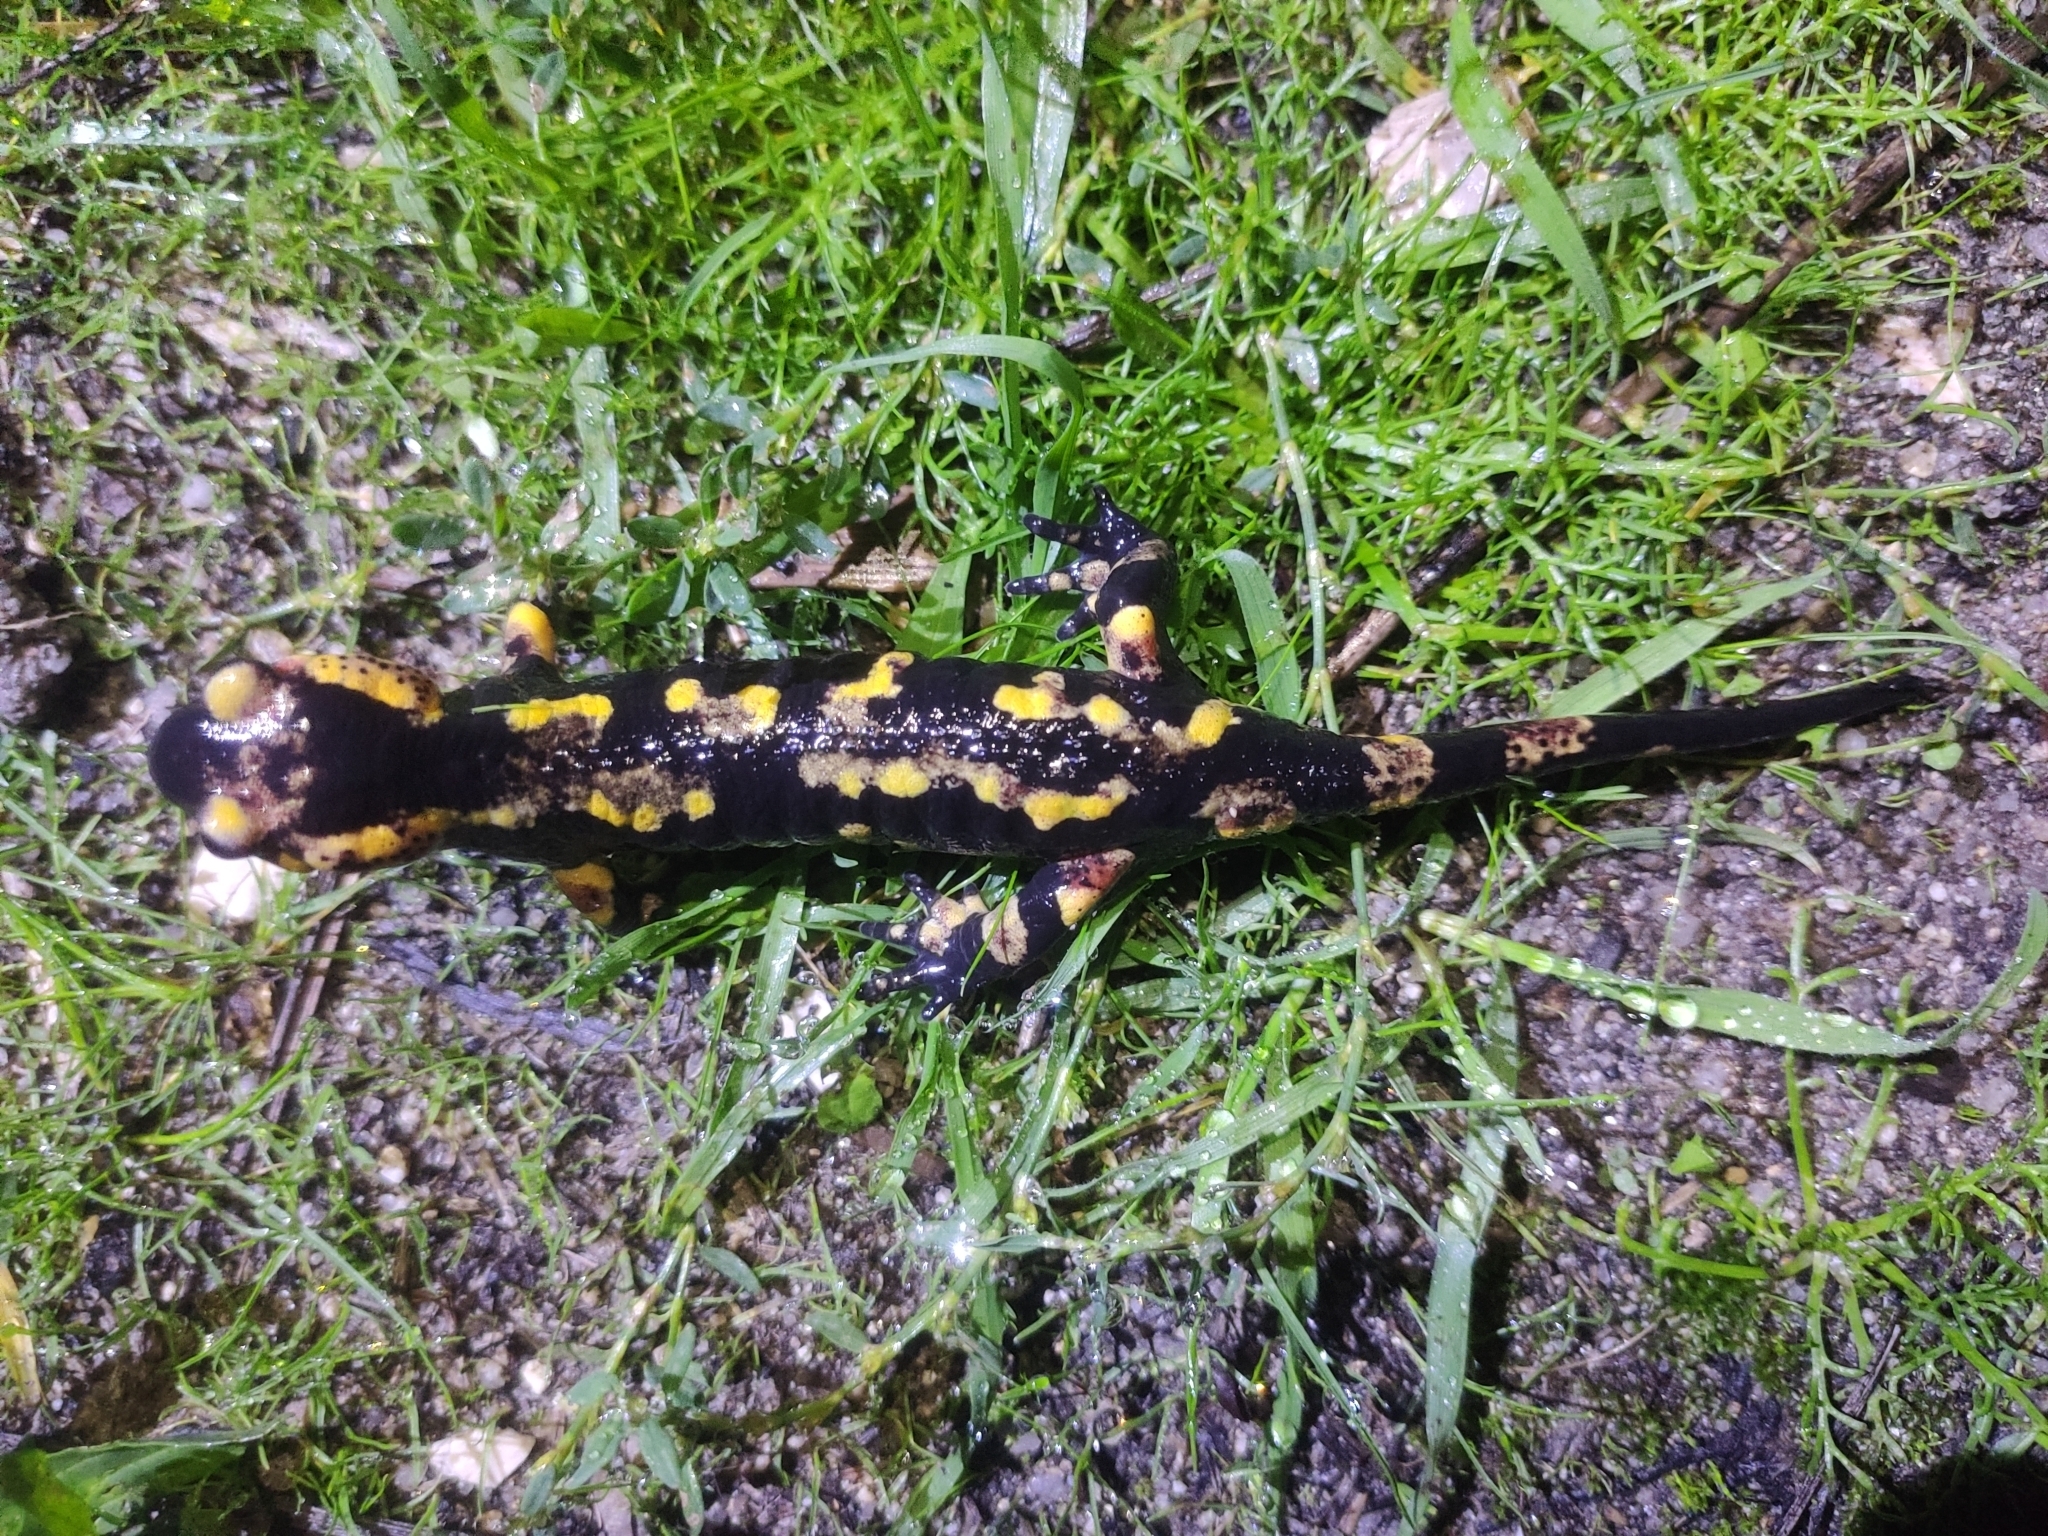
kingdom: Animalia
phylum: Chordata
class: Amphibia
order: Caudata
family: Salamandridae
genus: Salamandra
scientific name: Salamandra salamandra
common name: Fire salamander
